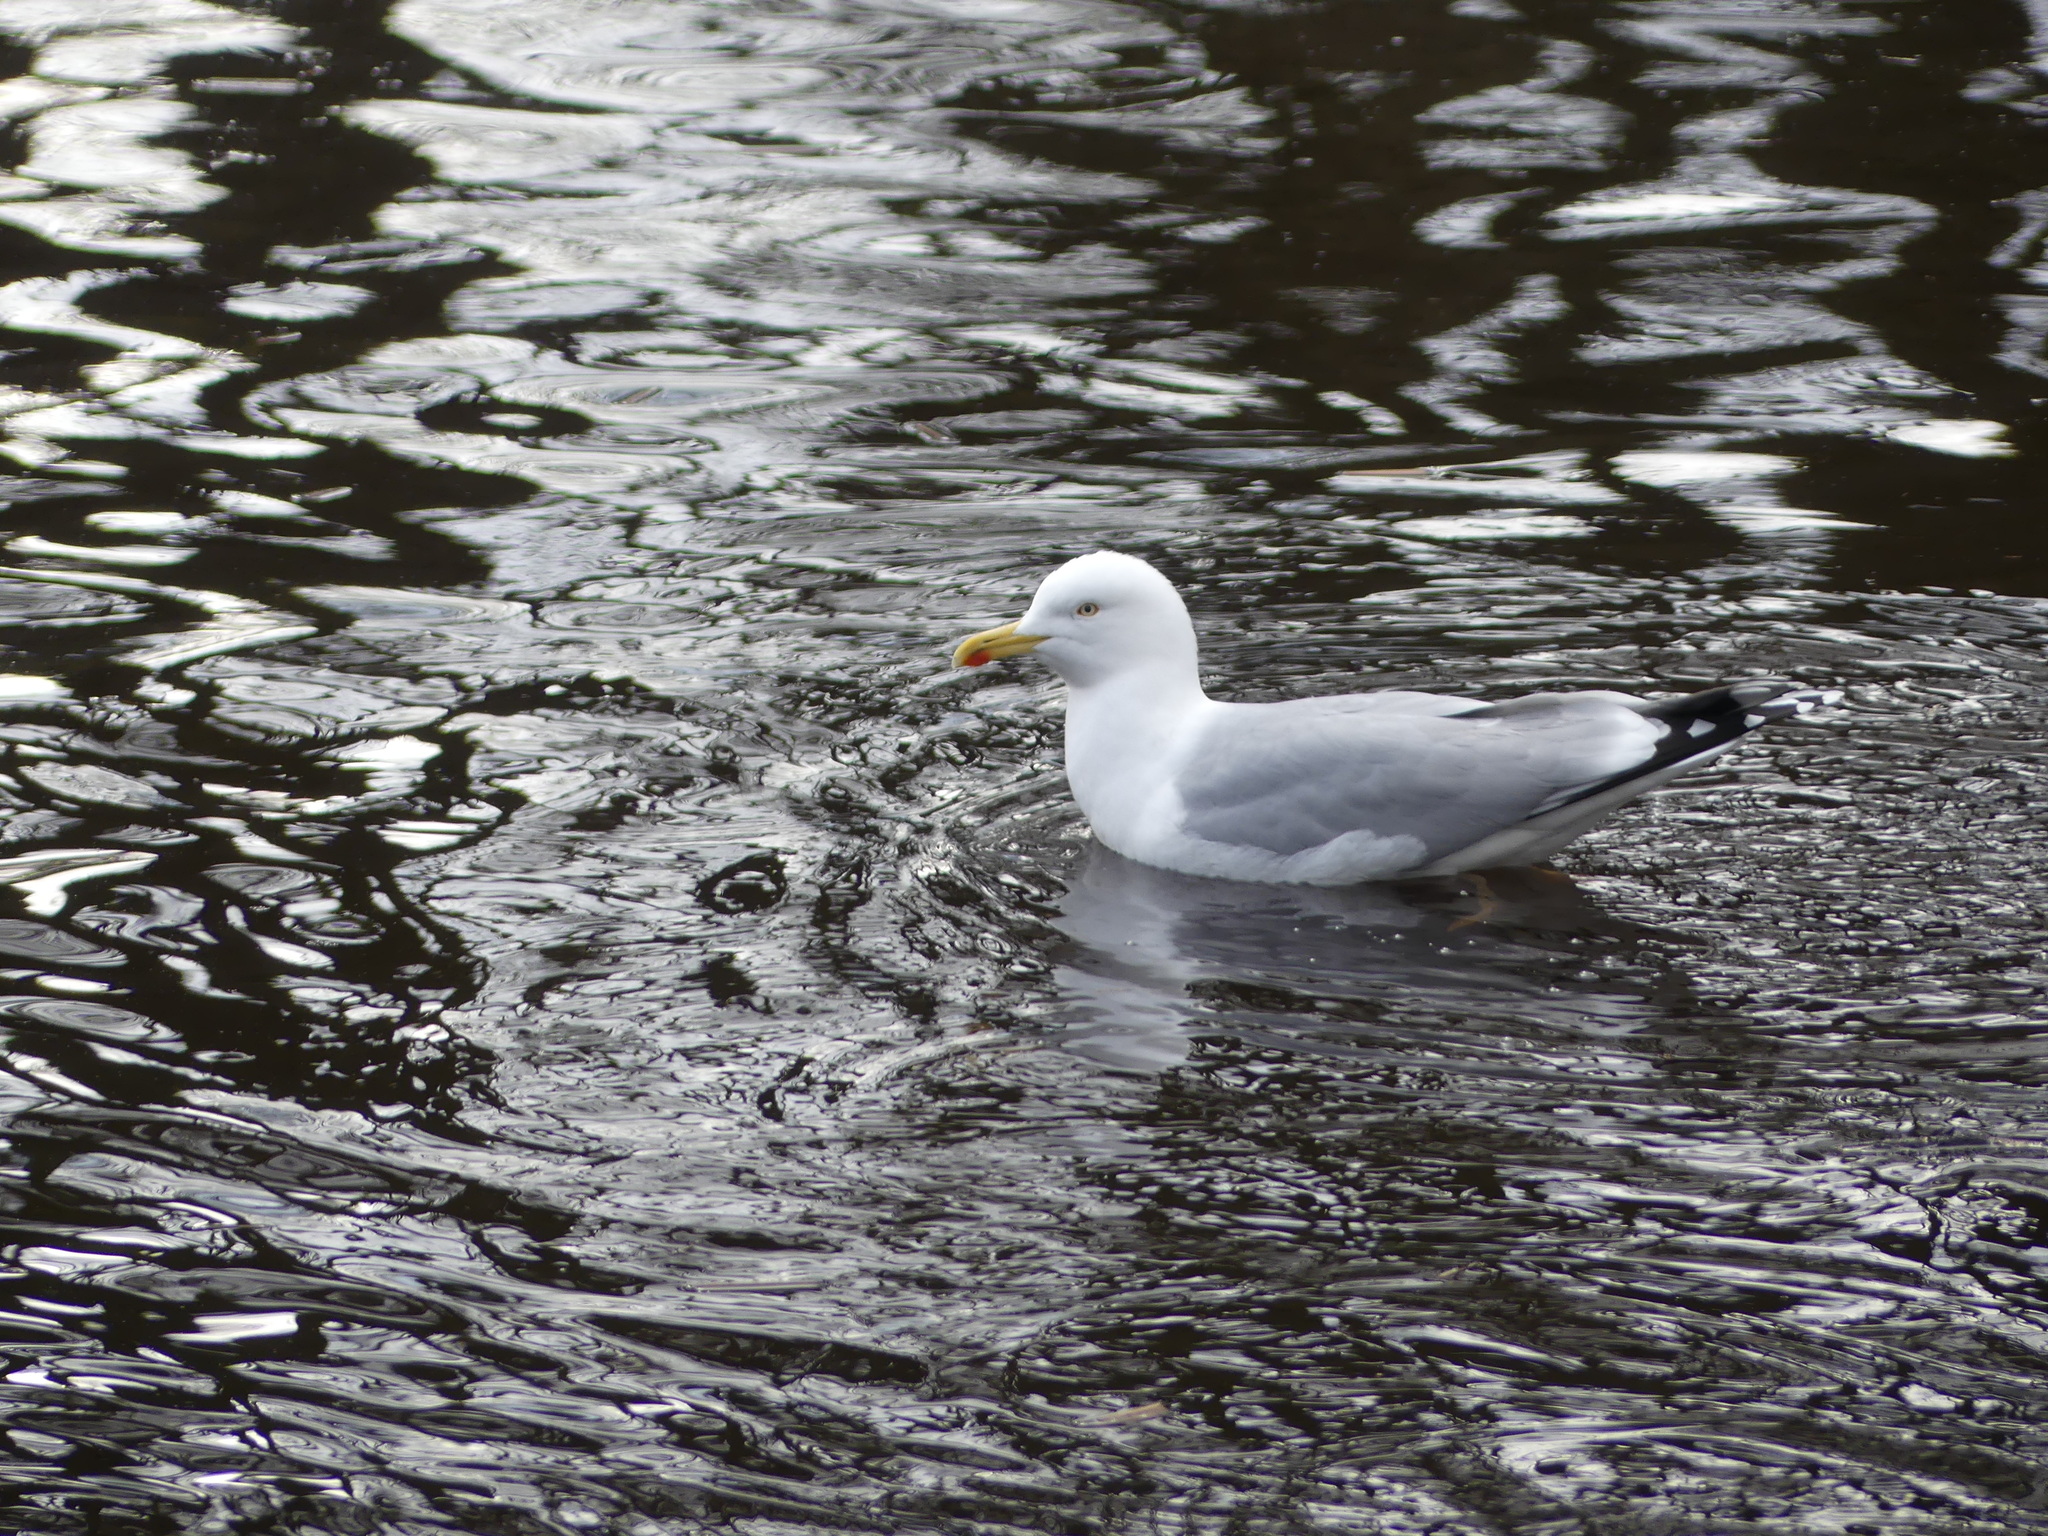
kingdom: Animalia
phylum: Chordata
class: Aves
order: Charadriiformes
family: Laridae
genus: Larus
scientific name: Larus argentatus
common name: Herring gull
